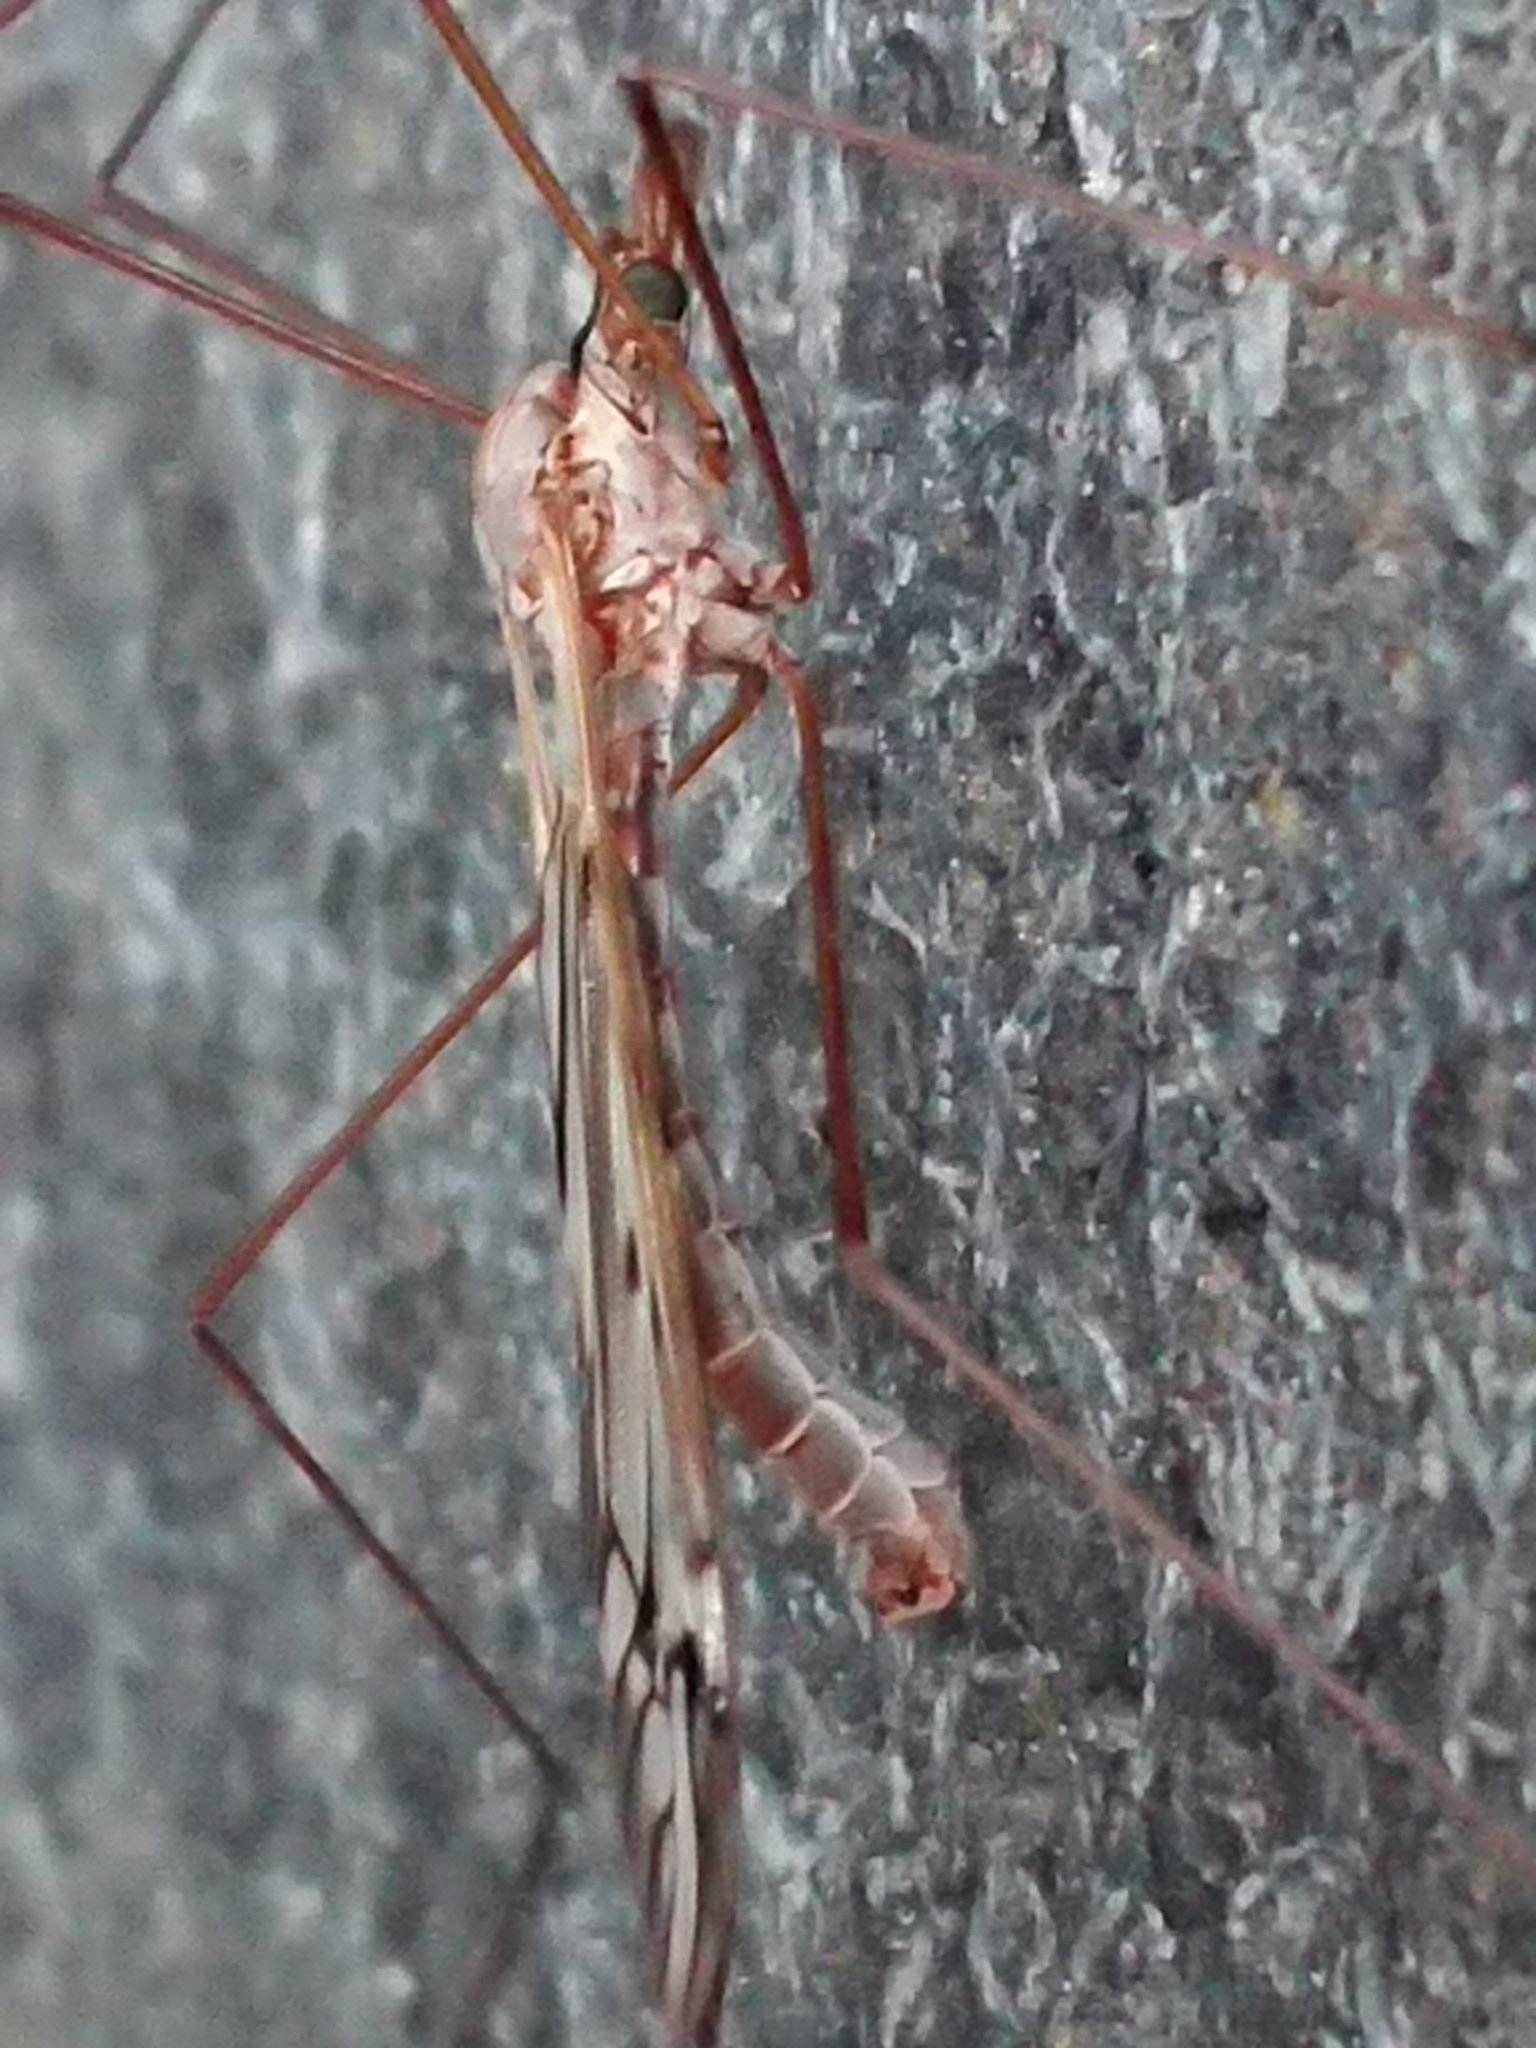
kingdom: Animalia
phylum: Arthropoda
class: Insecta
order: Diptera
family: Tipulidae
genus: Zelandotipula
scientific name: Zelandotipula novarae
